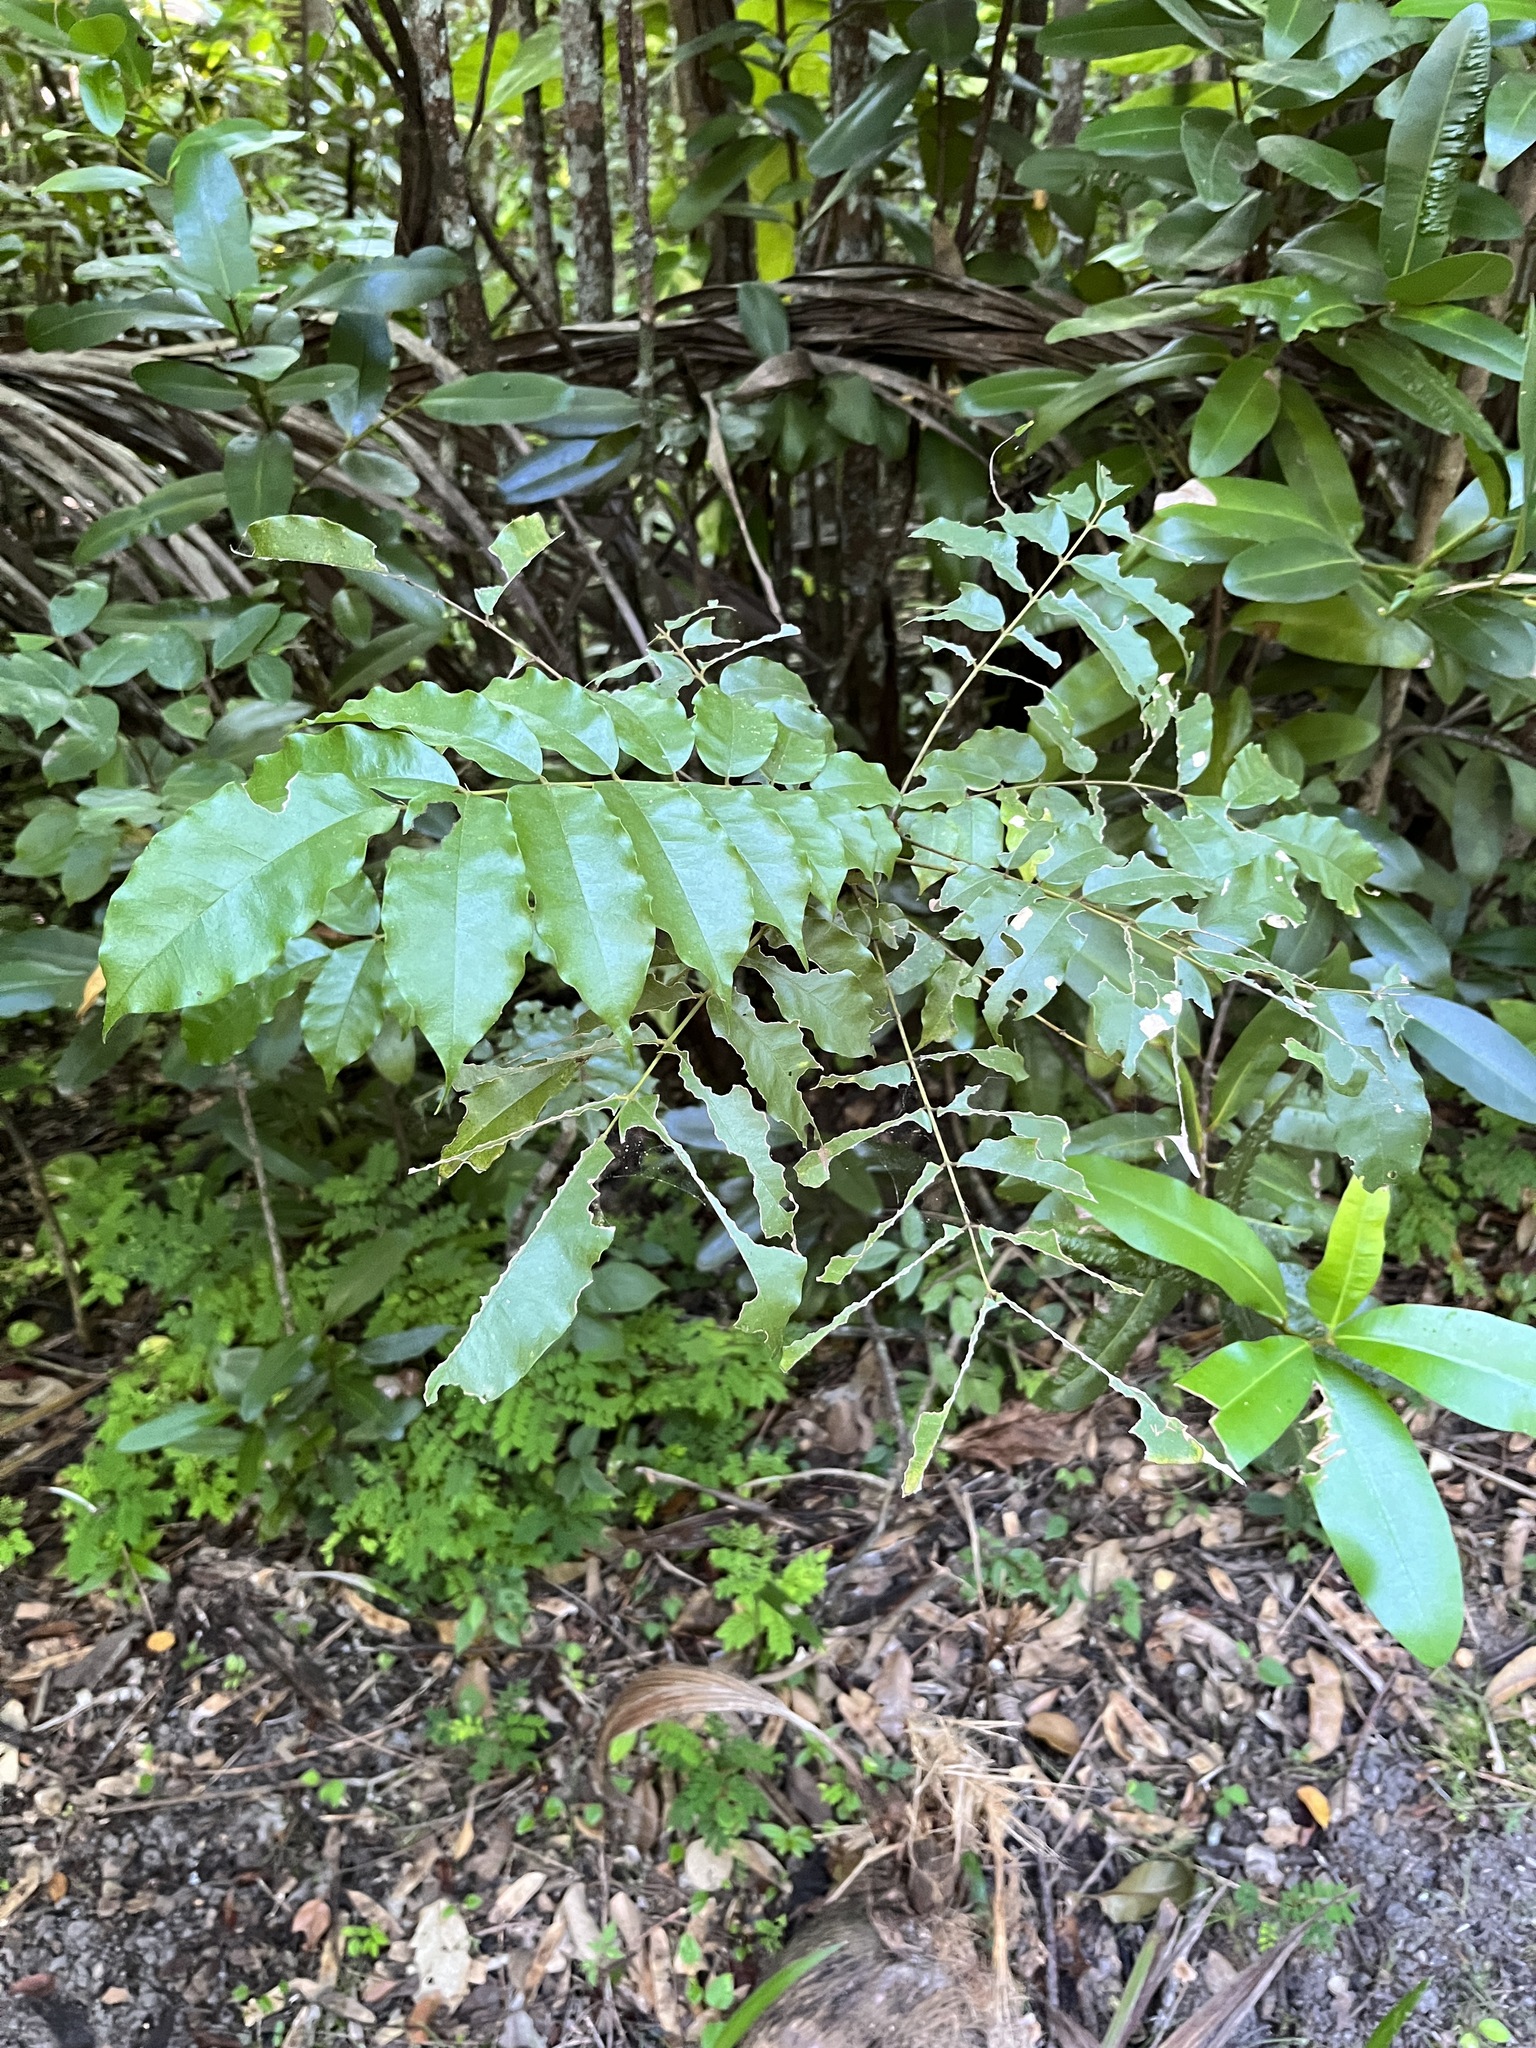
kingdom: Plantae
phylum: Tracheophyta
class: Magnoliopsida
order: Fabales
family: Fabaceae
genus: Andira
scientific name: Andira inermis
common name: Angelin
